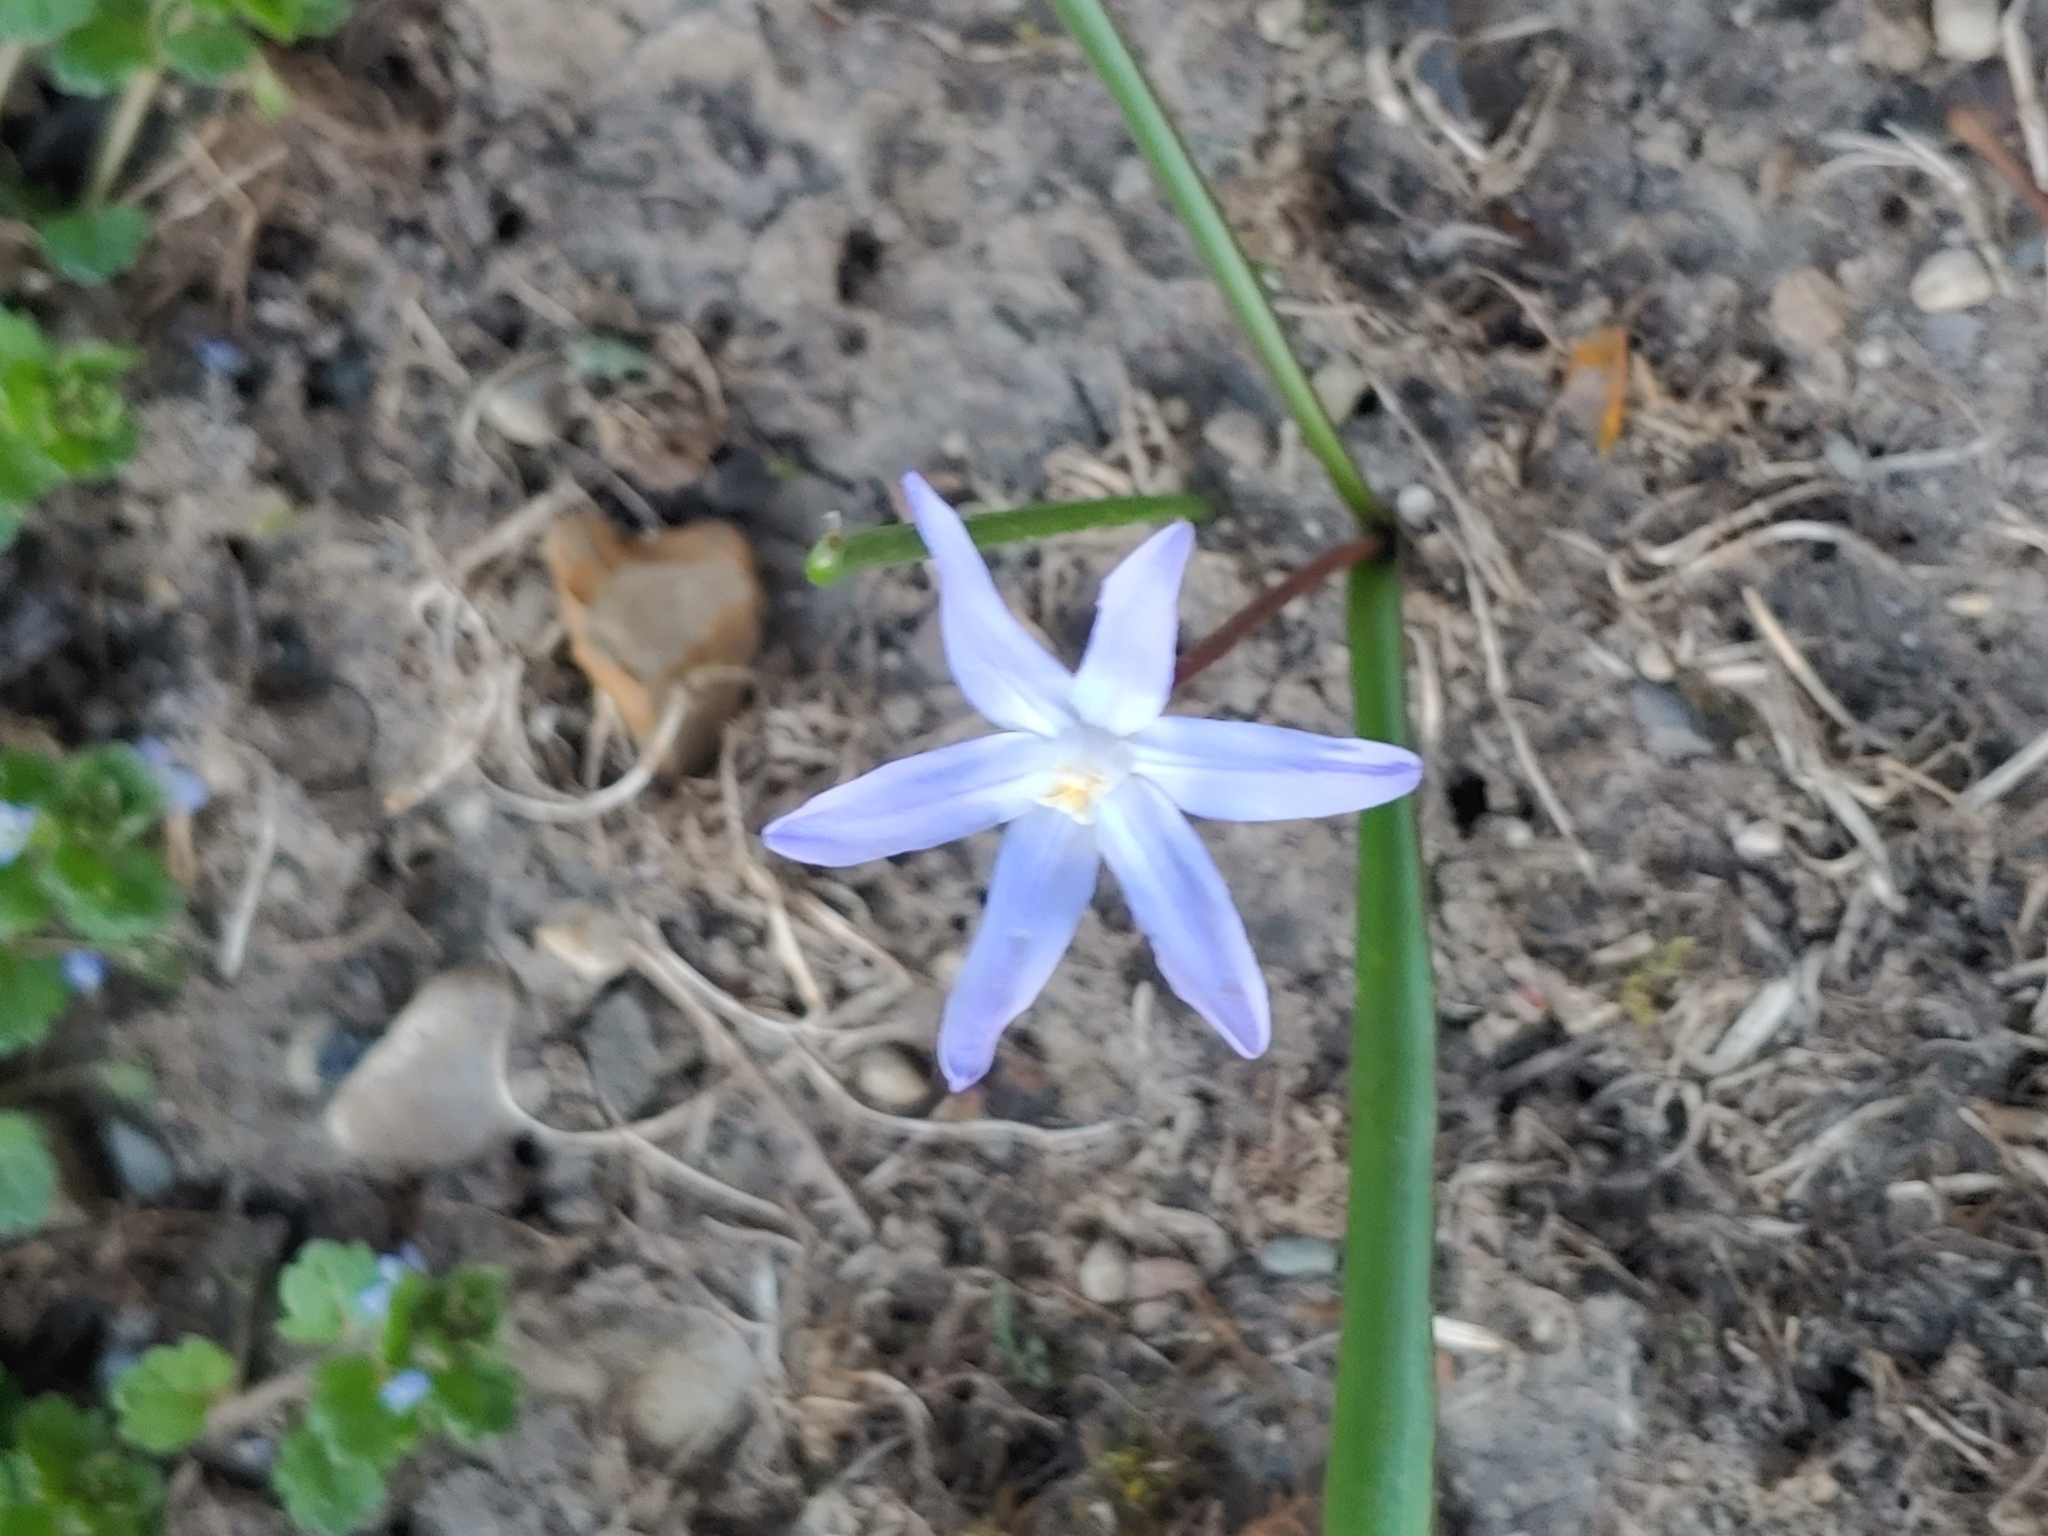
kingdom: Plantae
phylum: Tracheophyta
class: Liliopsida
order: Asparagales
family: Asparagaceae
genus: Scilla
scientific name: Scilla forbesii
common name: Glory-of-the-snow
